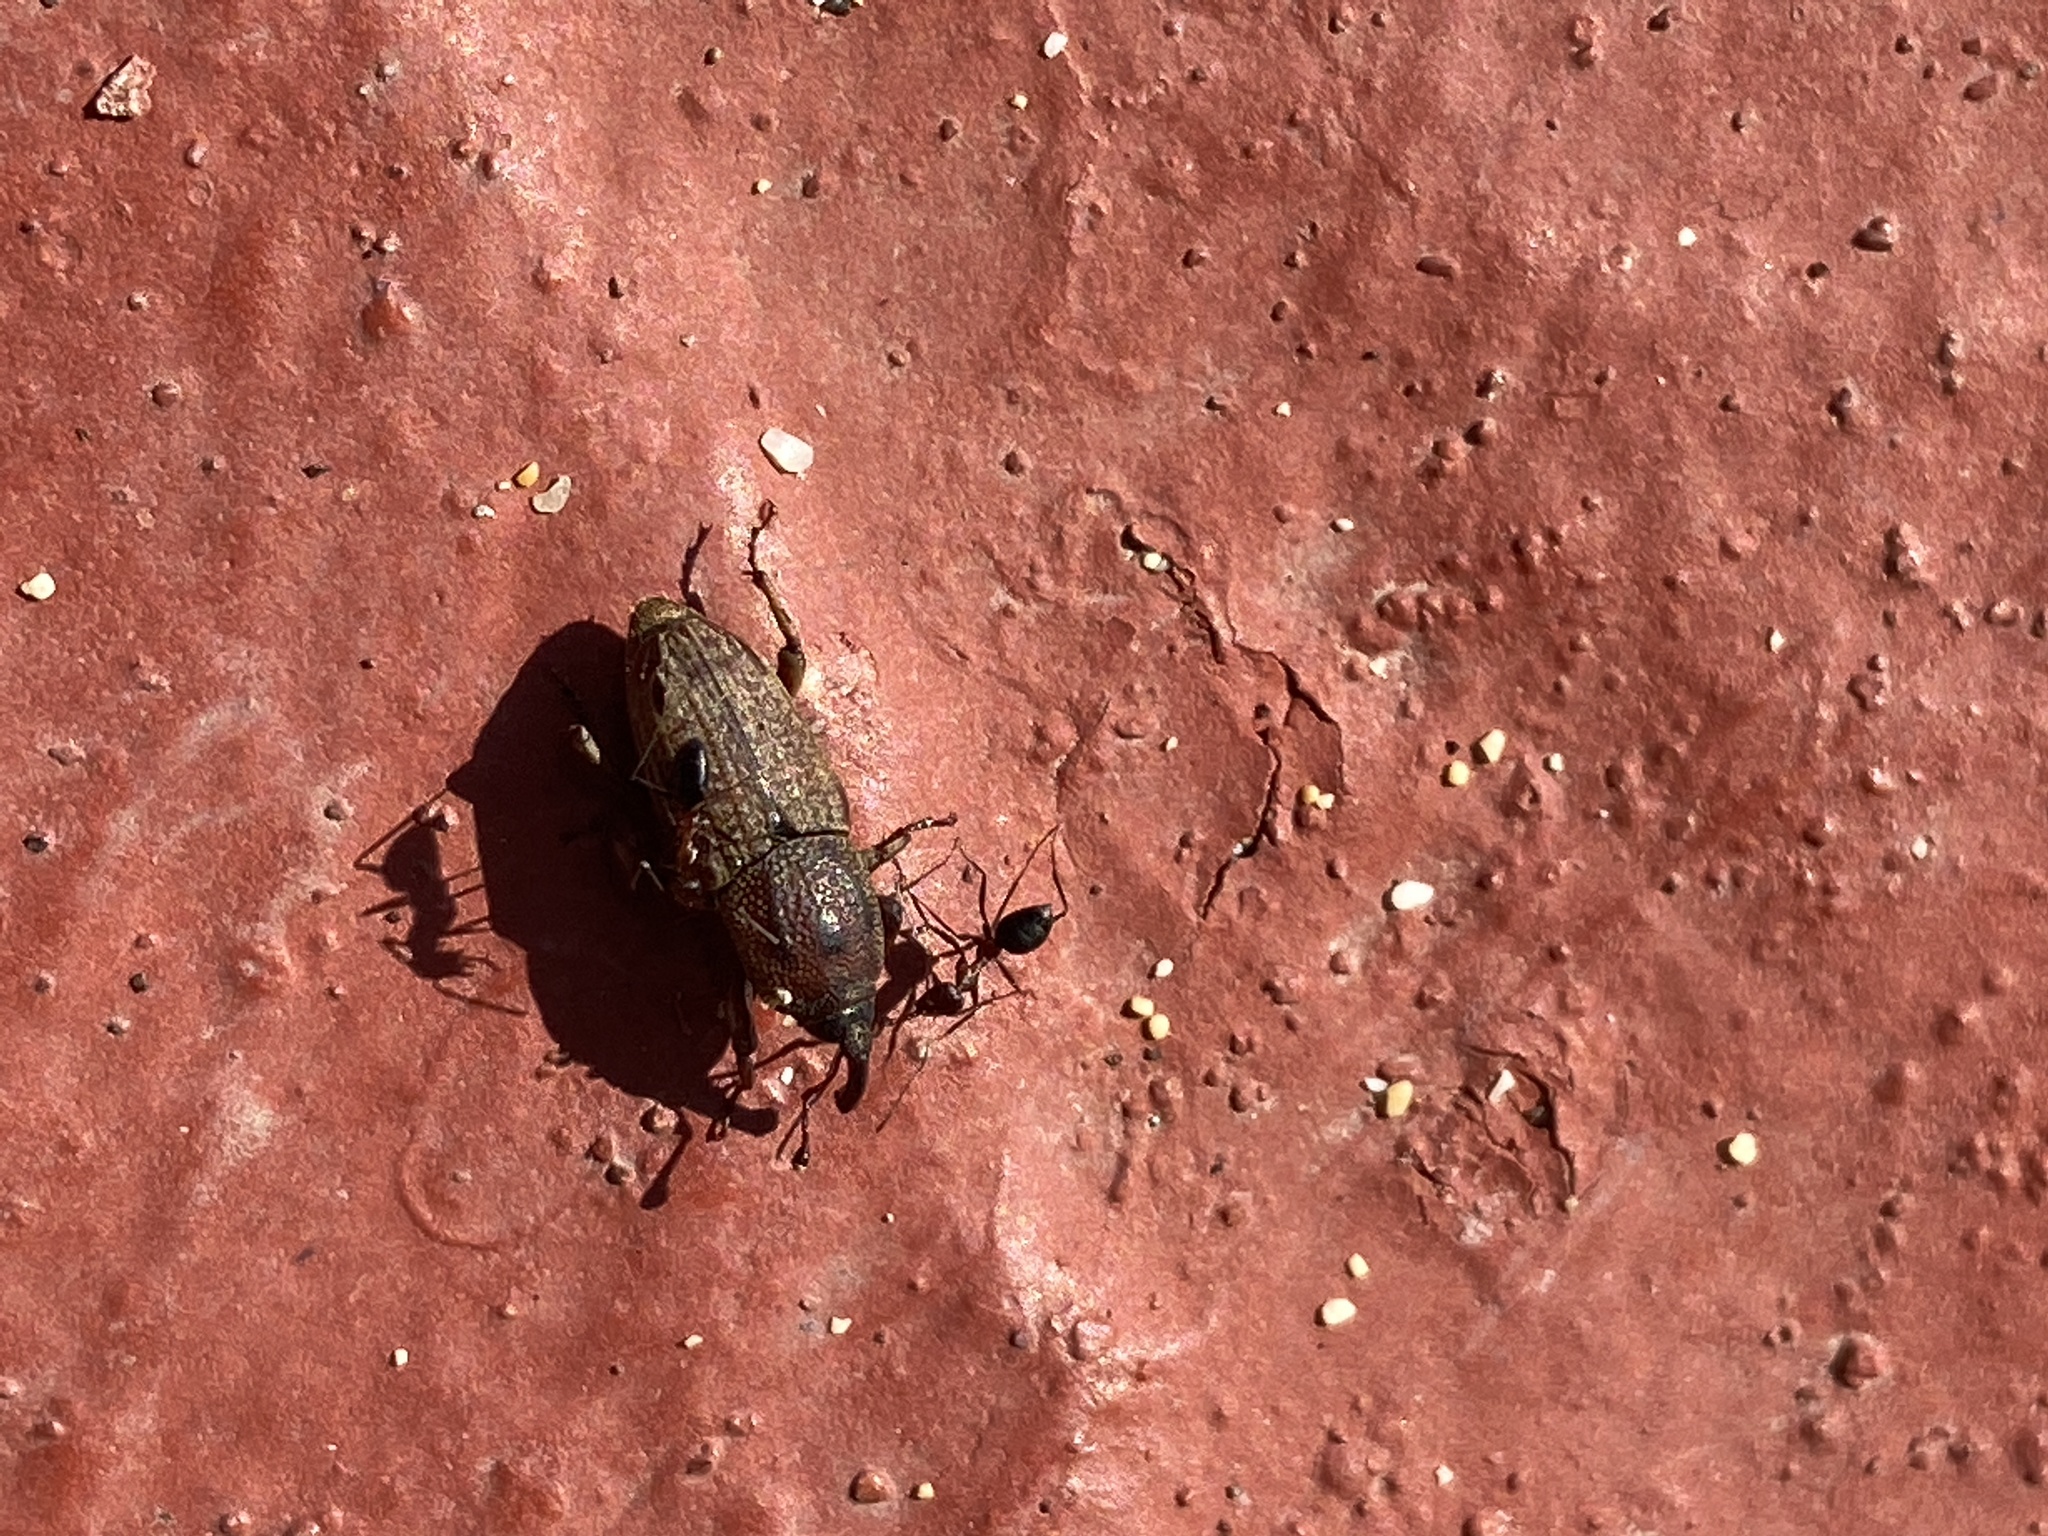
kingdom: Animalia
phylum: Arthropoda
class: Insecta
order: Coleoptera
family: Dryophthoridae
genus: Sphenophorus
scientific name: Sphenophorus venatus
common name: Hunting billbug
